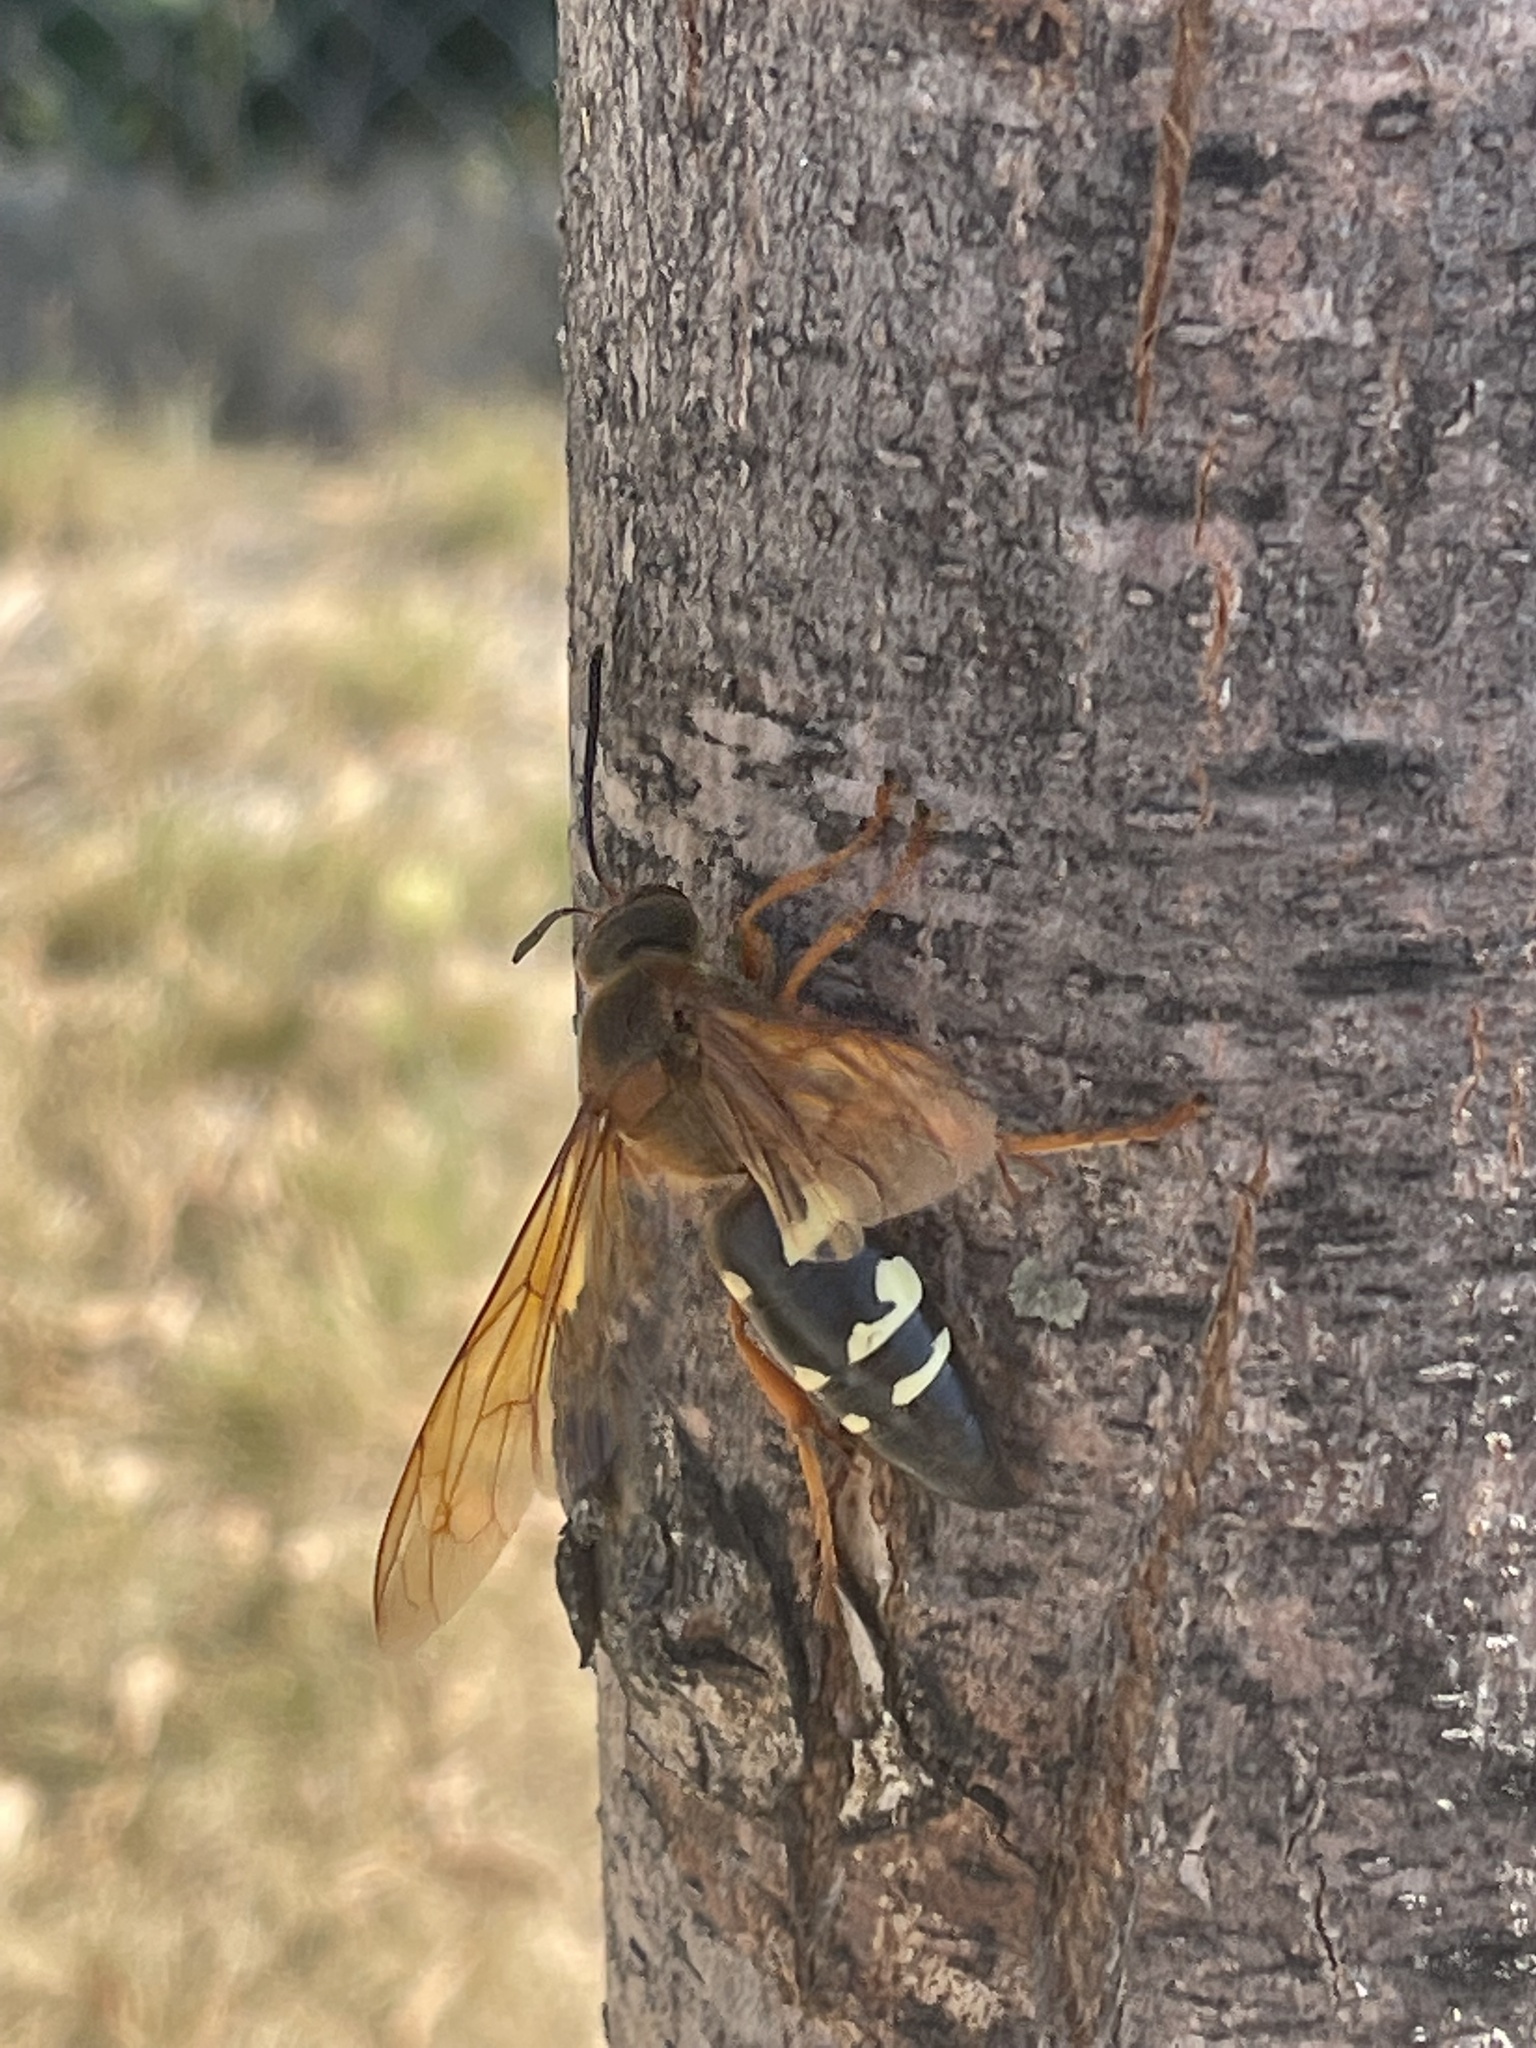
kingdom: Animalia
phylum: Arthropoda
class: Insecta
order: Hymenoptera
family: Crabronidae
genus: Sphecius
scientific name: Sphecius speciosus
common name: Cicada killer
